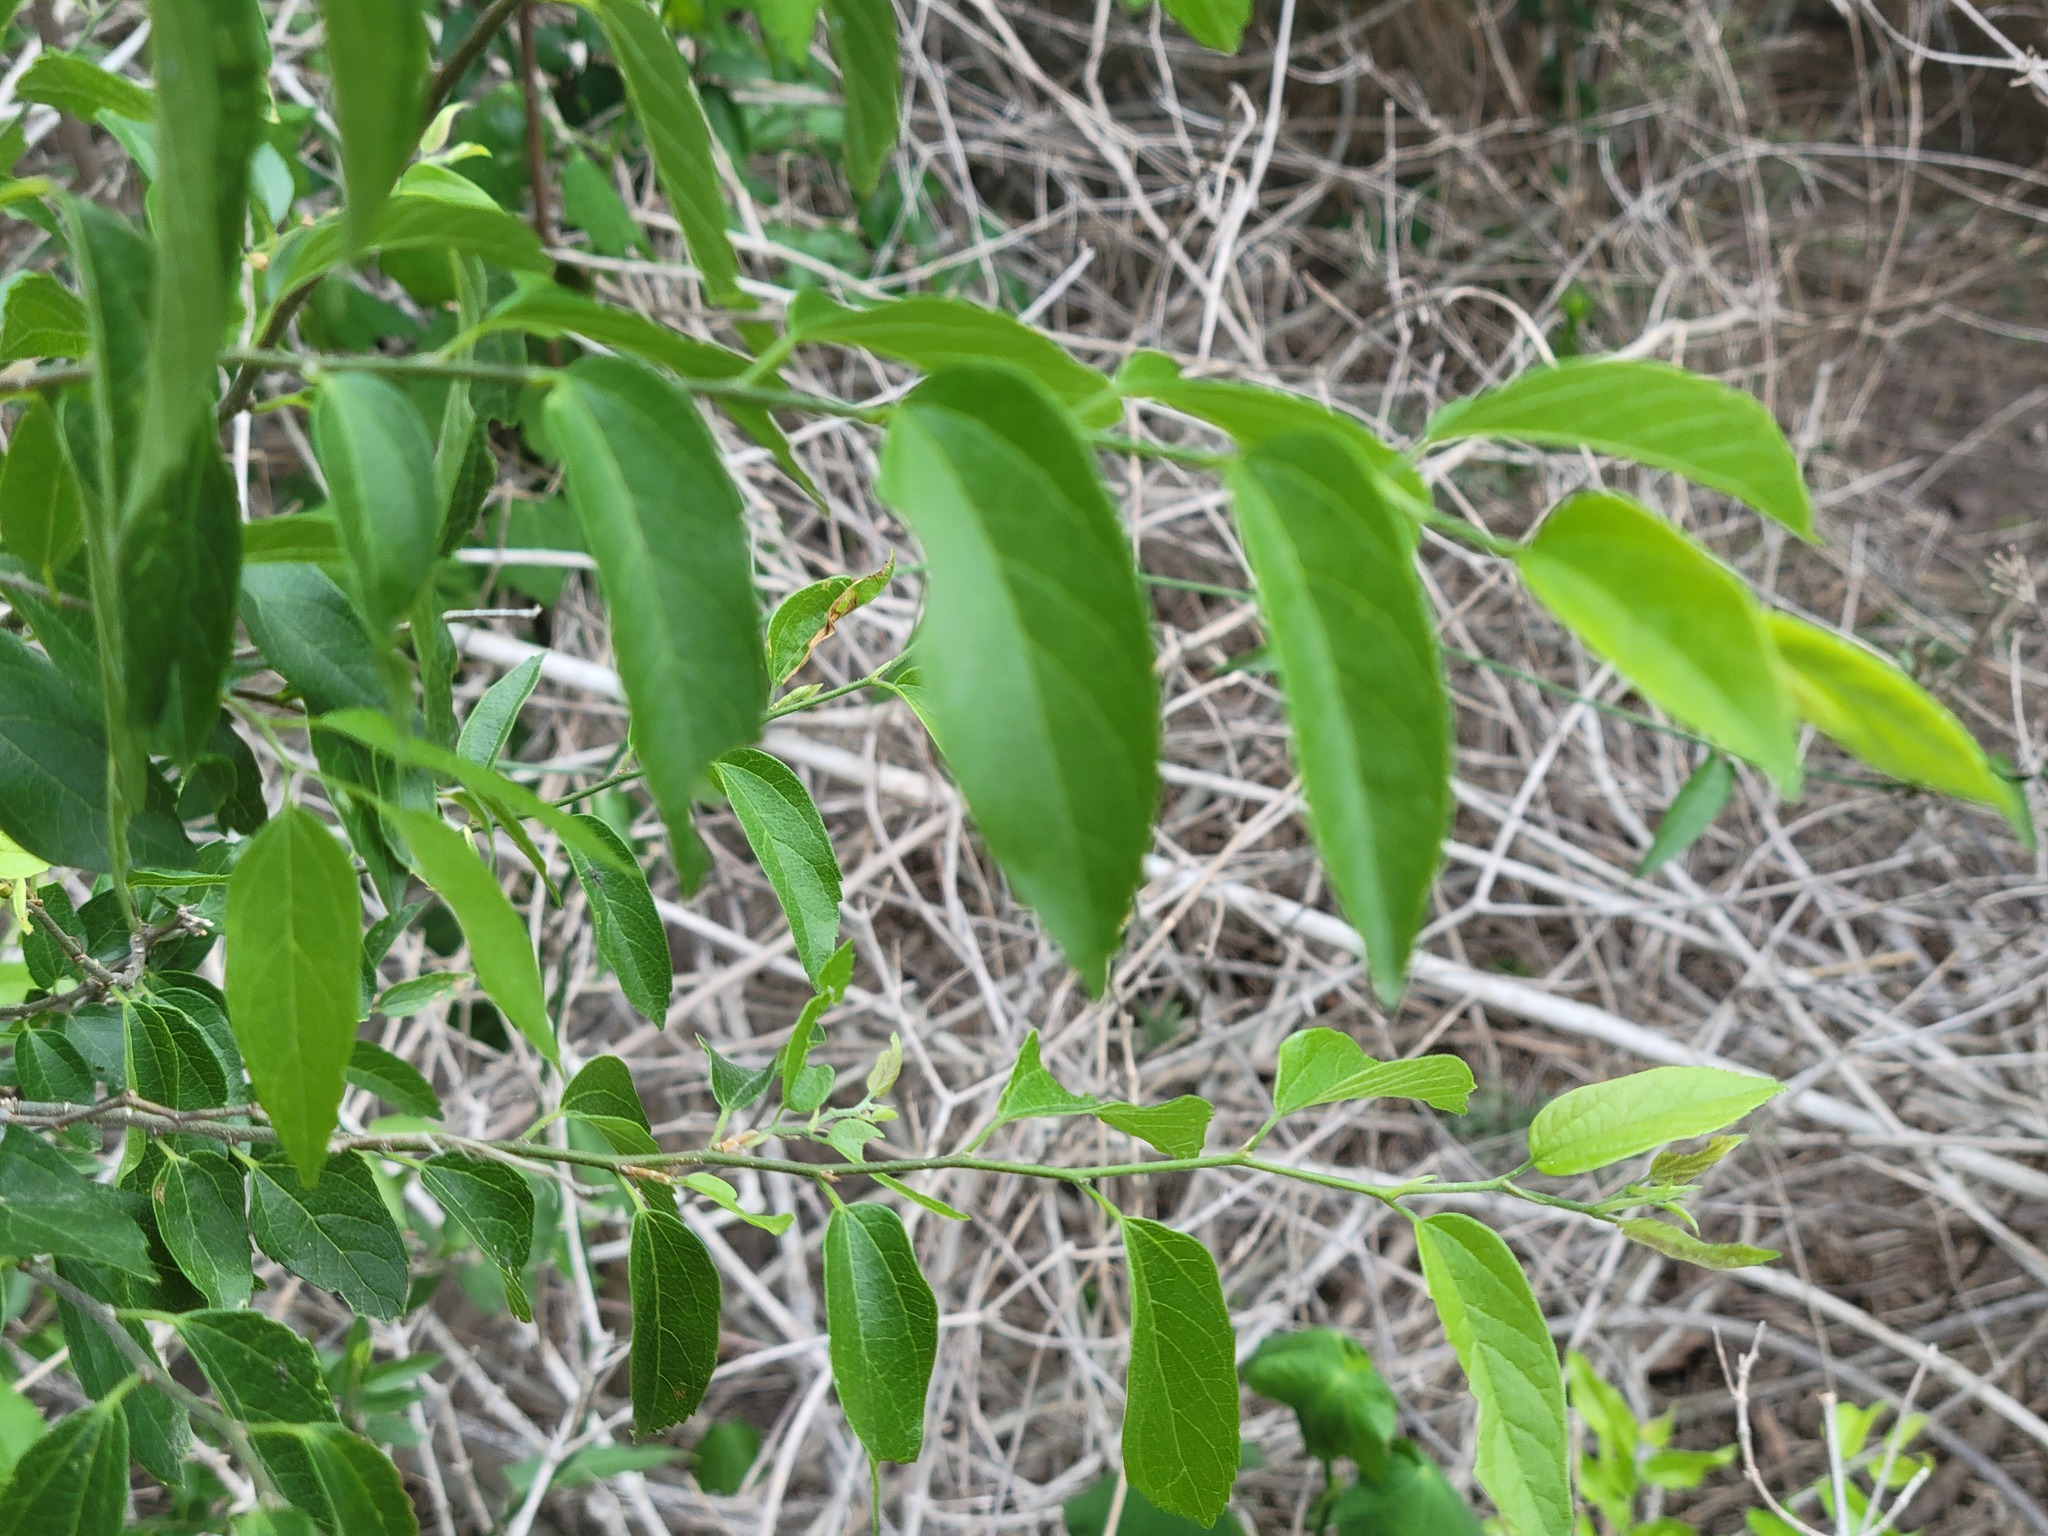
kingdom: Plantae
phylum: Tracheophyta
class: Magnoliopsida
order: Rosales
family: Cannabaceae
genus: Celtis
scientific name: Celtis laevigata
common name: Sugarberry
